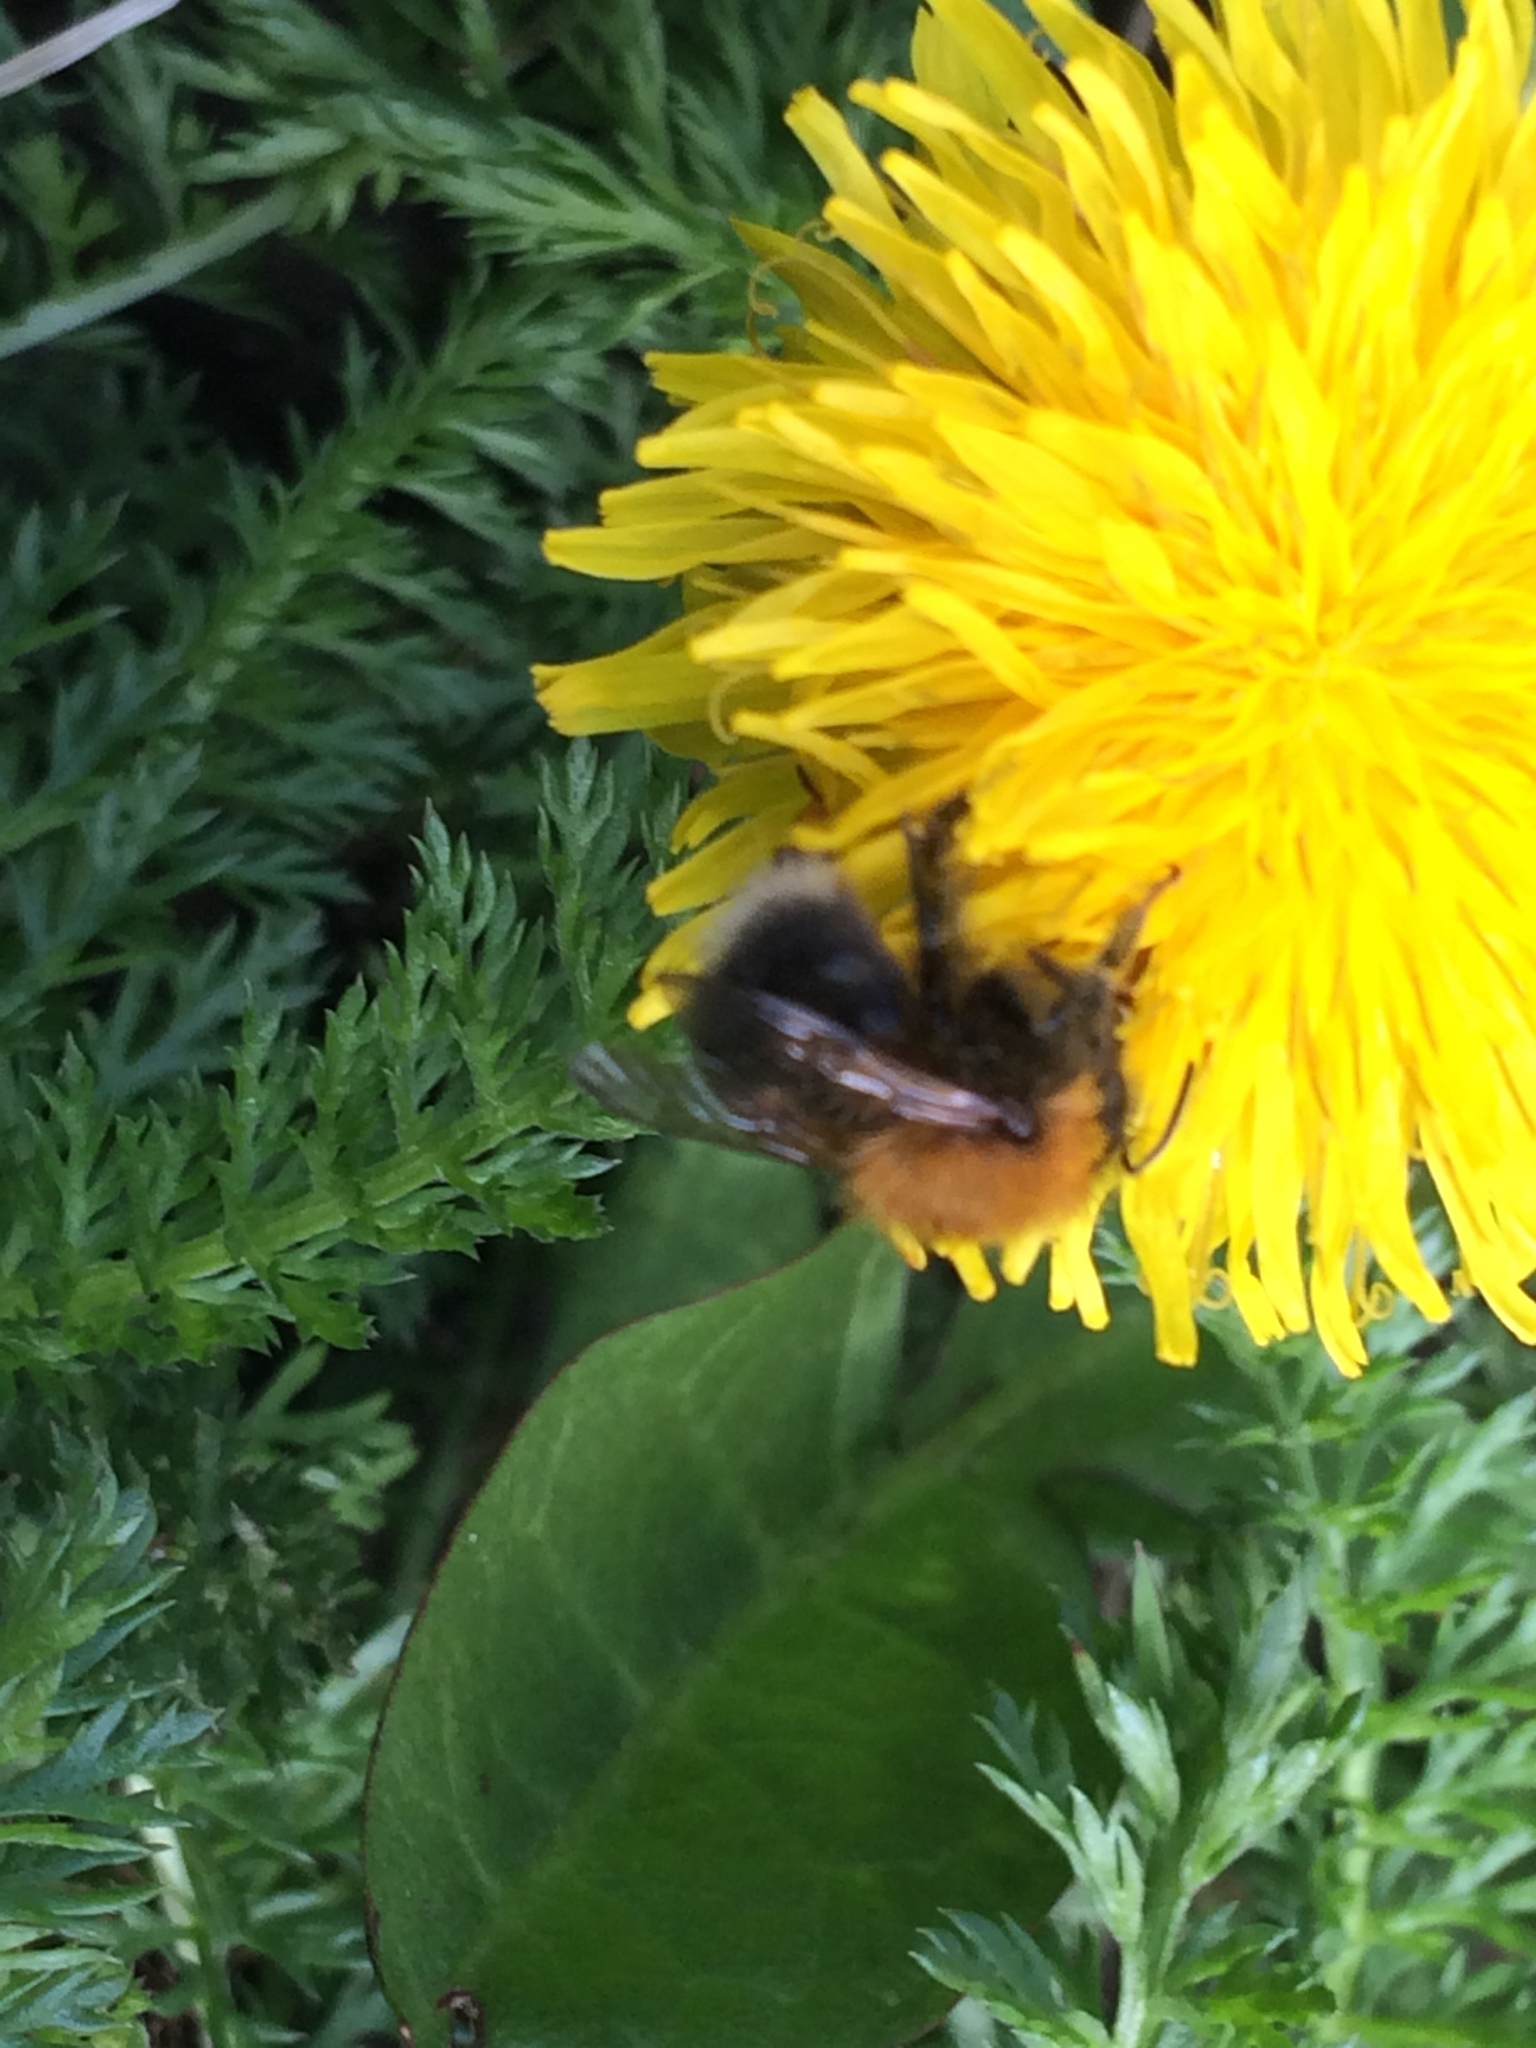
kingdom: Animalia
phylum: Arthropoda
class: Insecta
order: Hymenoptera
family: Apidae
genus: Bombus
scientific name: Bombus hypnorum
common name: New garden bumblebee
